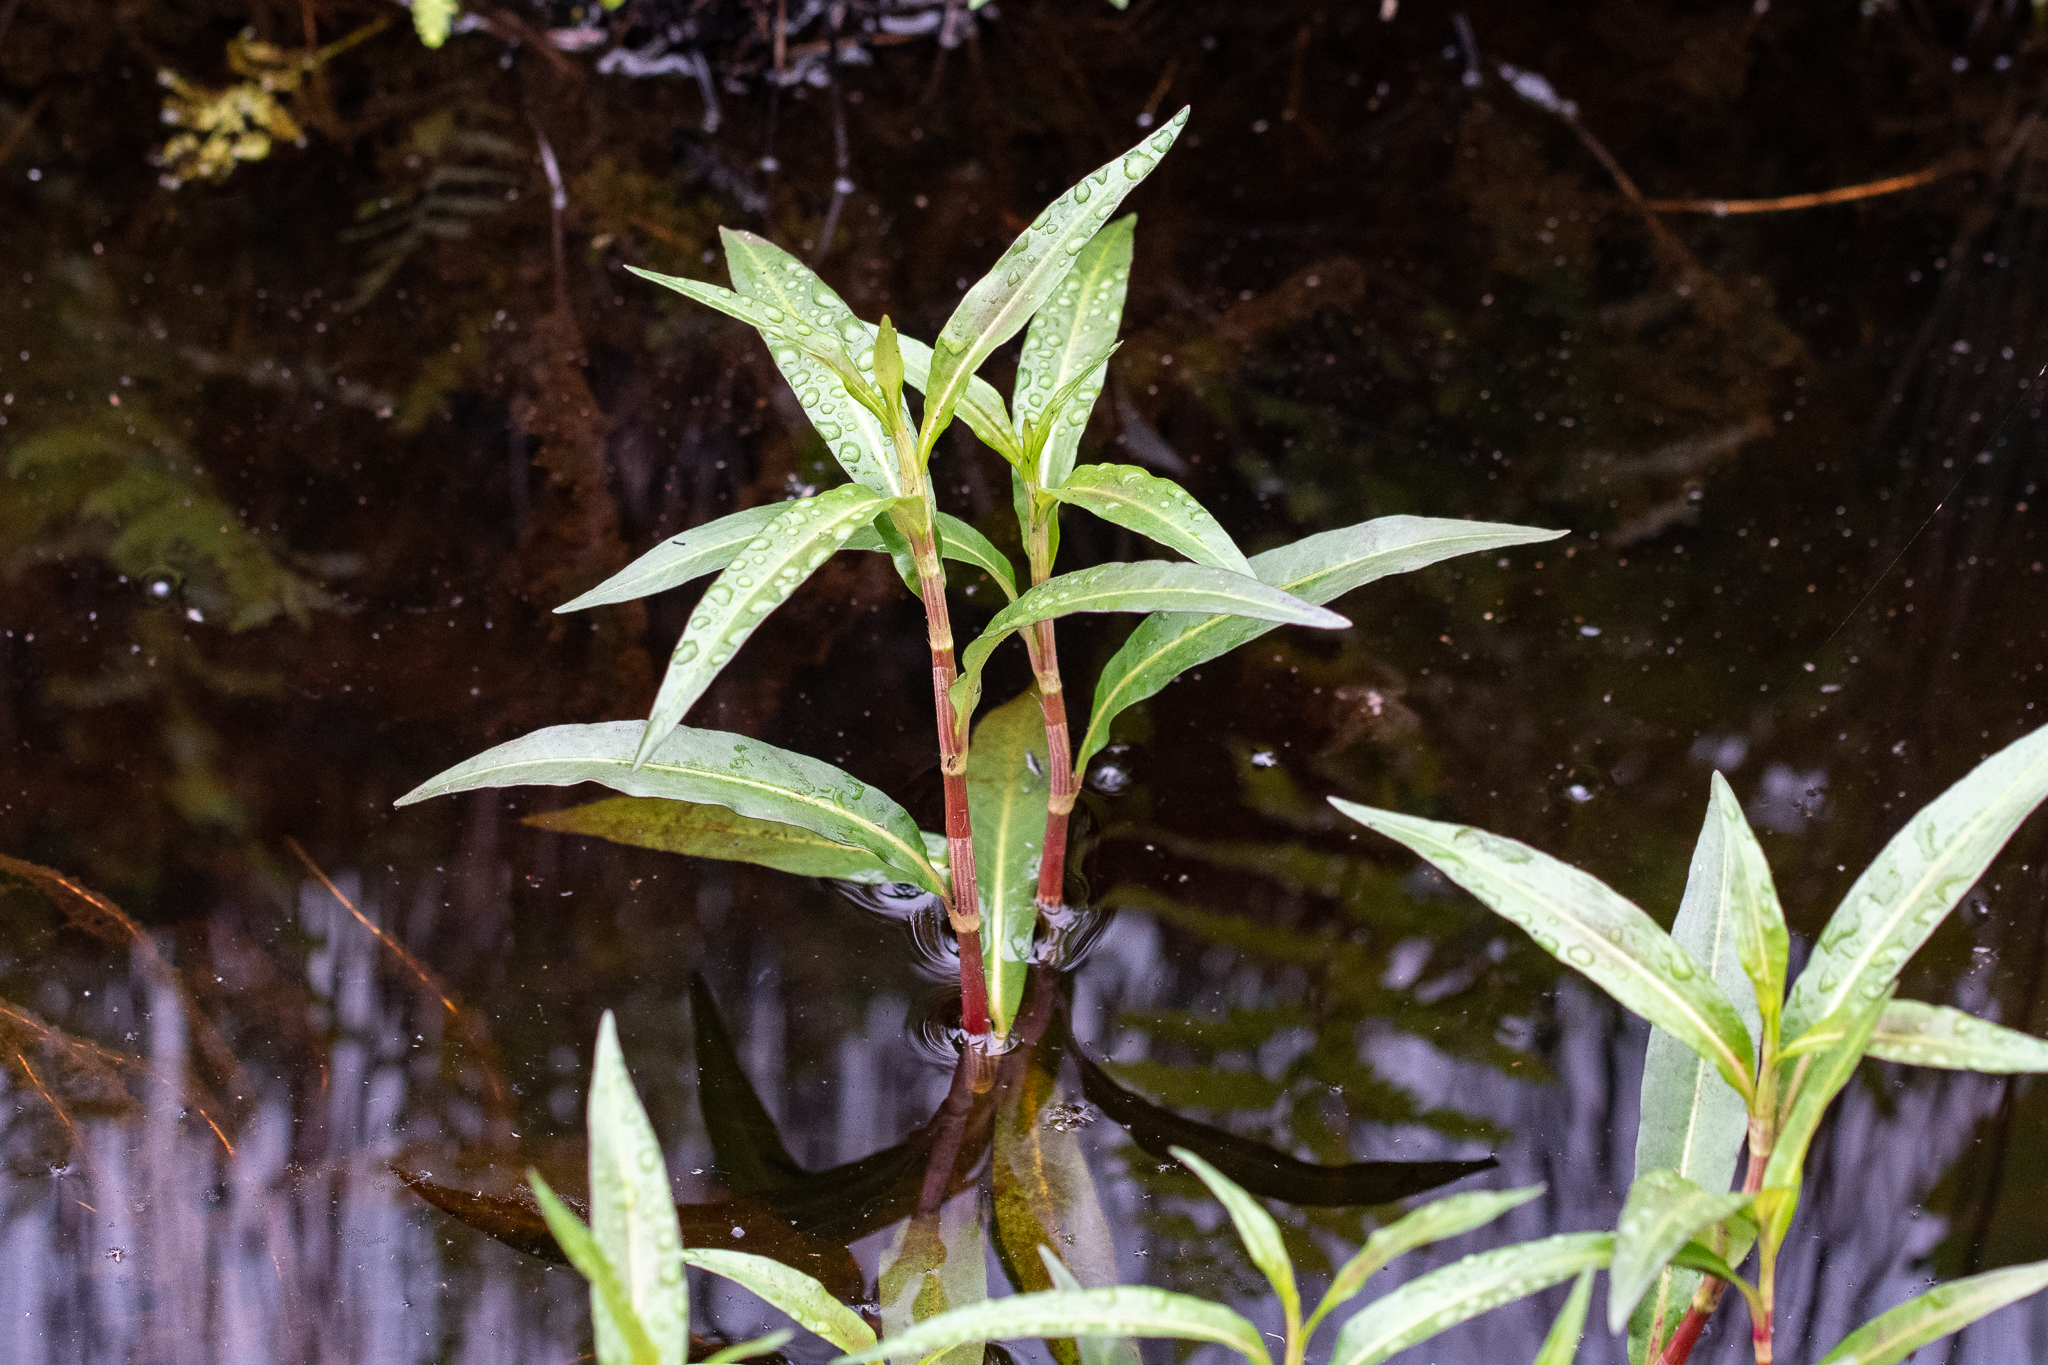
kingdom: Plantae
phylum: Tracheophyta
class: Magnoliopsida
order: Caryophyllales
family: Polygonaceae
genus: Persicaria
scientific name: Persicaria decipiens
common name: Willow-weed
